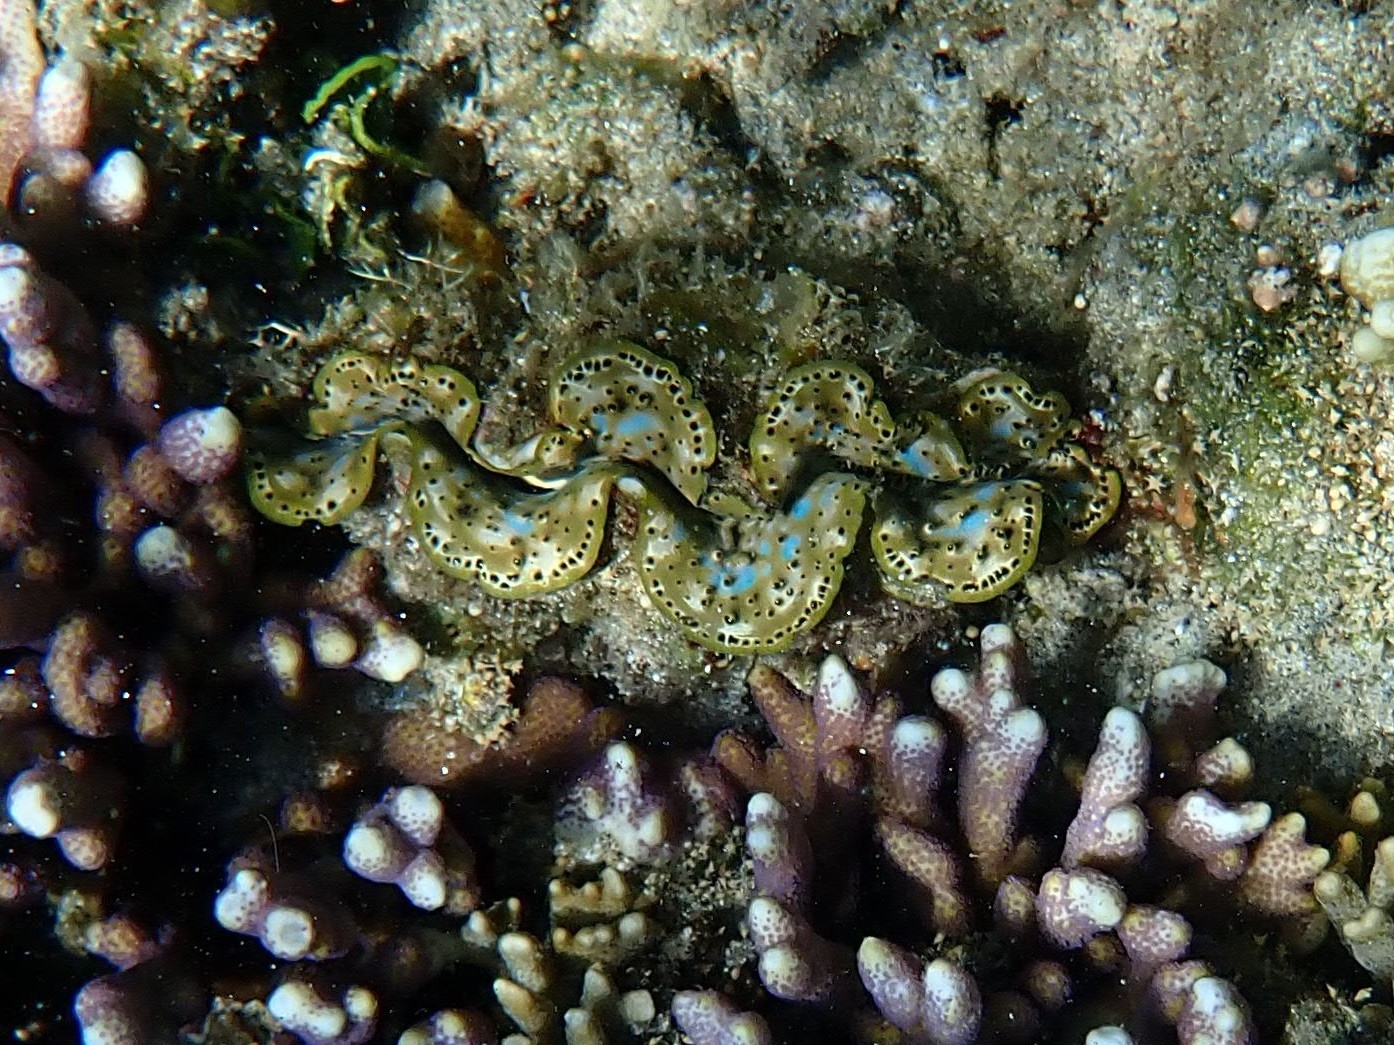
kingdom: Animalia
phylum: Mollusca
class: Bivalvia
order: Cardiida
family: Cardiidae
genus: Tridacna
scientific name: Tridacna maxima
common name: Small giant clam
